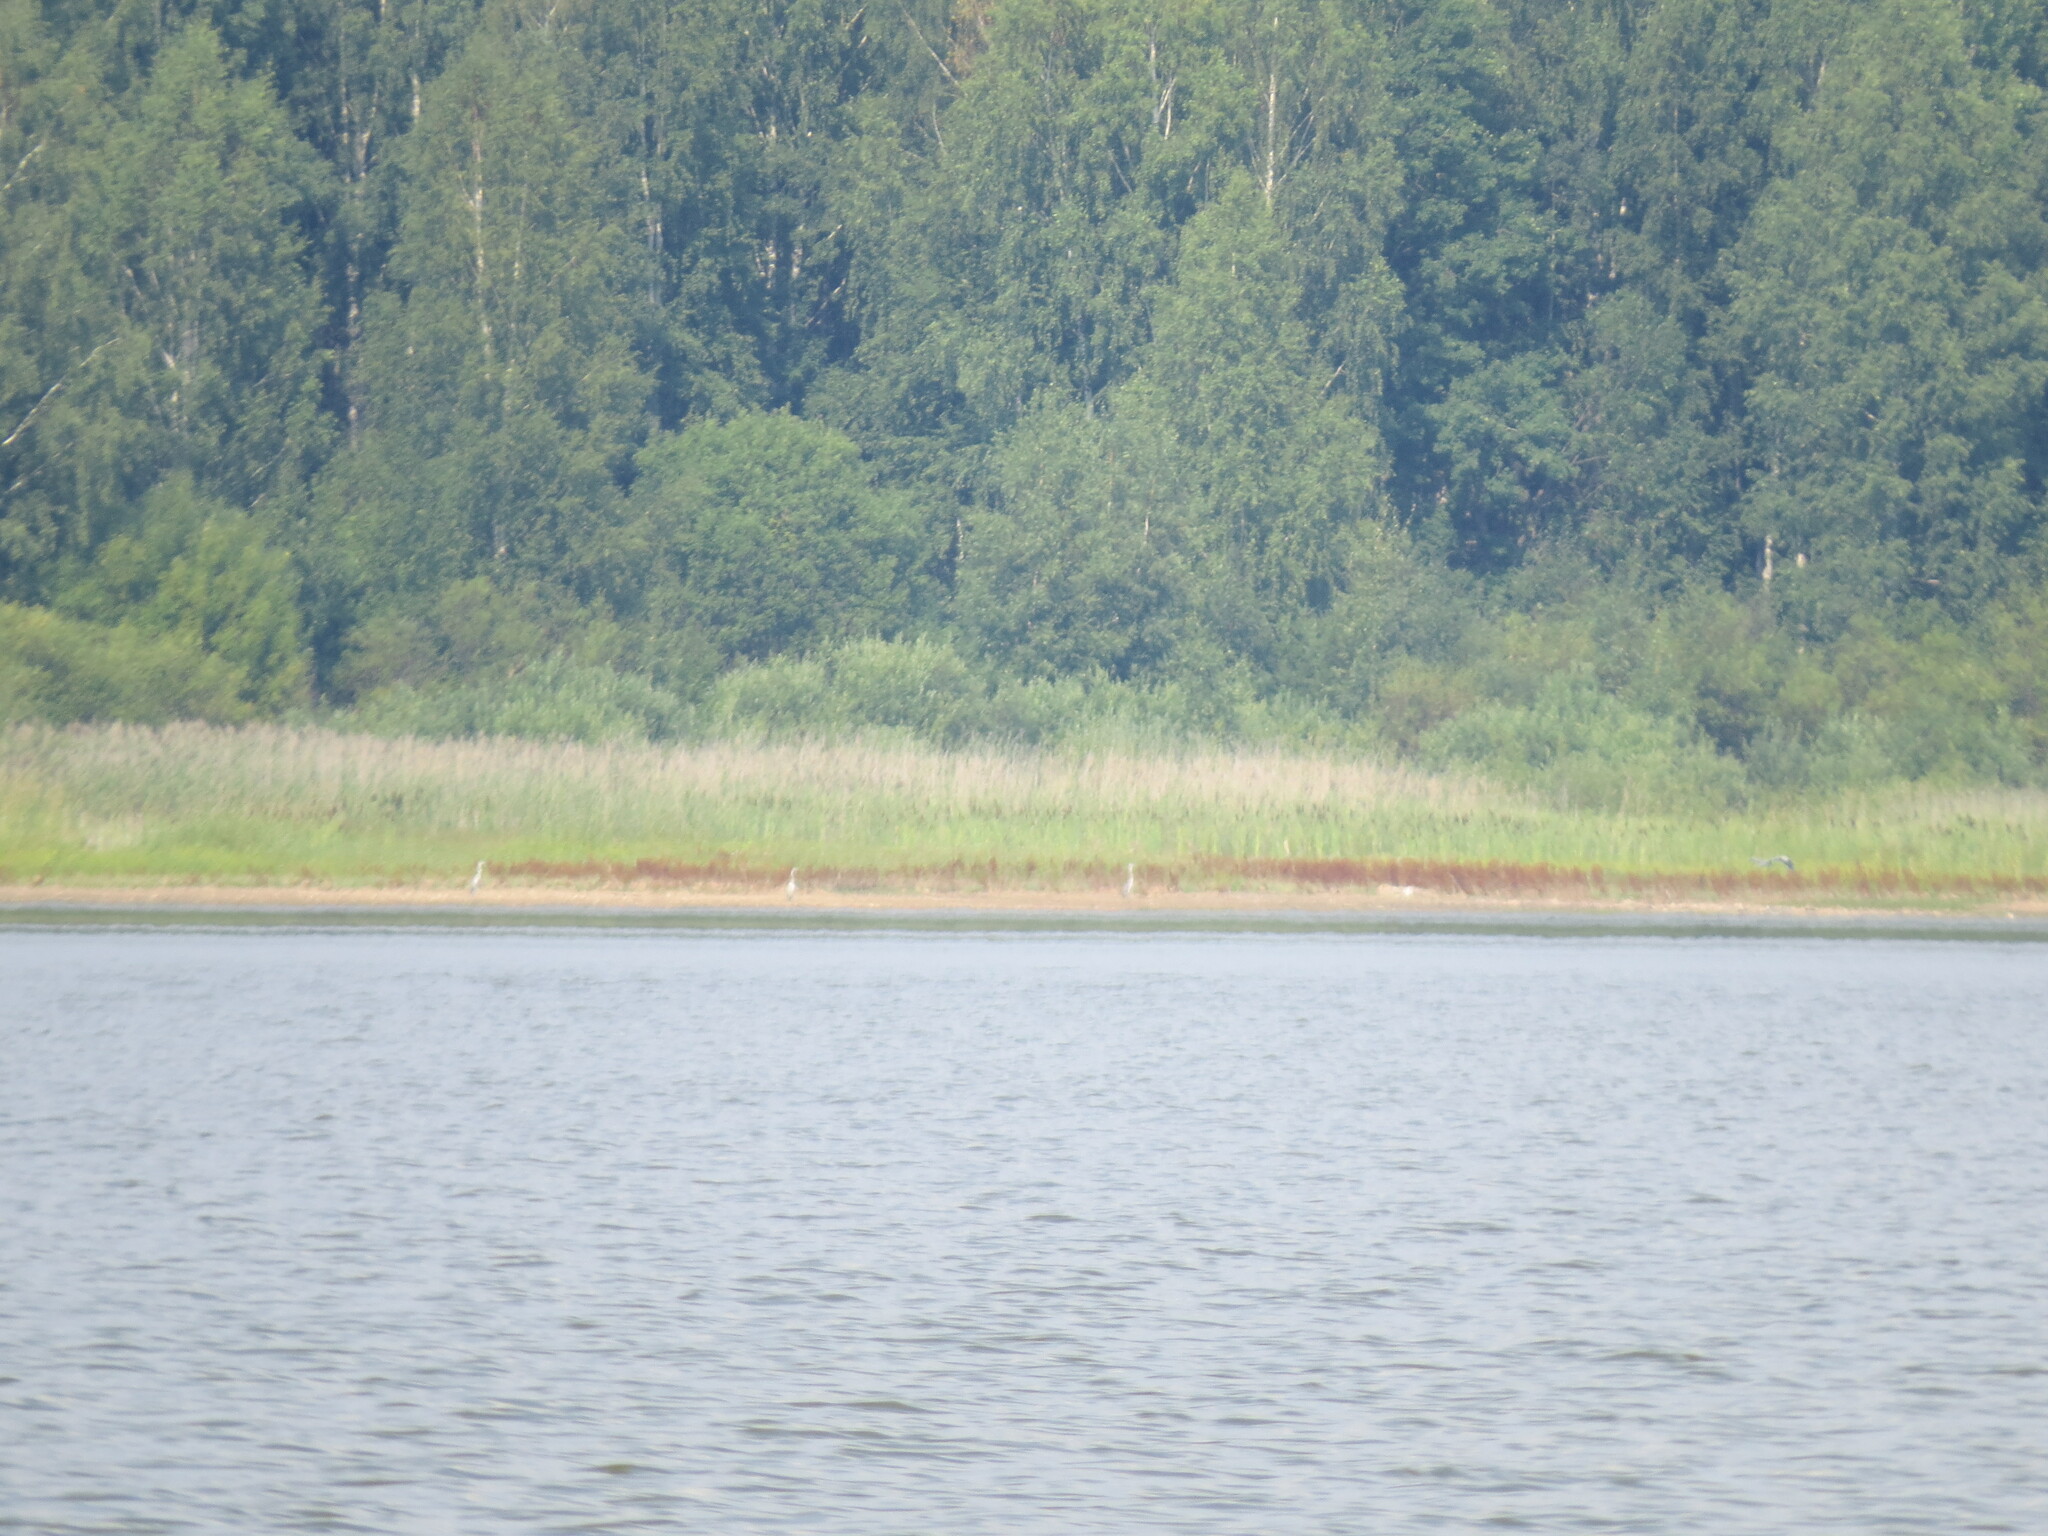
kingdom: Animalia
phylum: Chordata
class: Aves
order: Pelecaniformes
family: Ardeidae
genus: Ardea
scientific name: Ardea cinerea
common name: Grey heron
